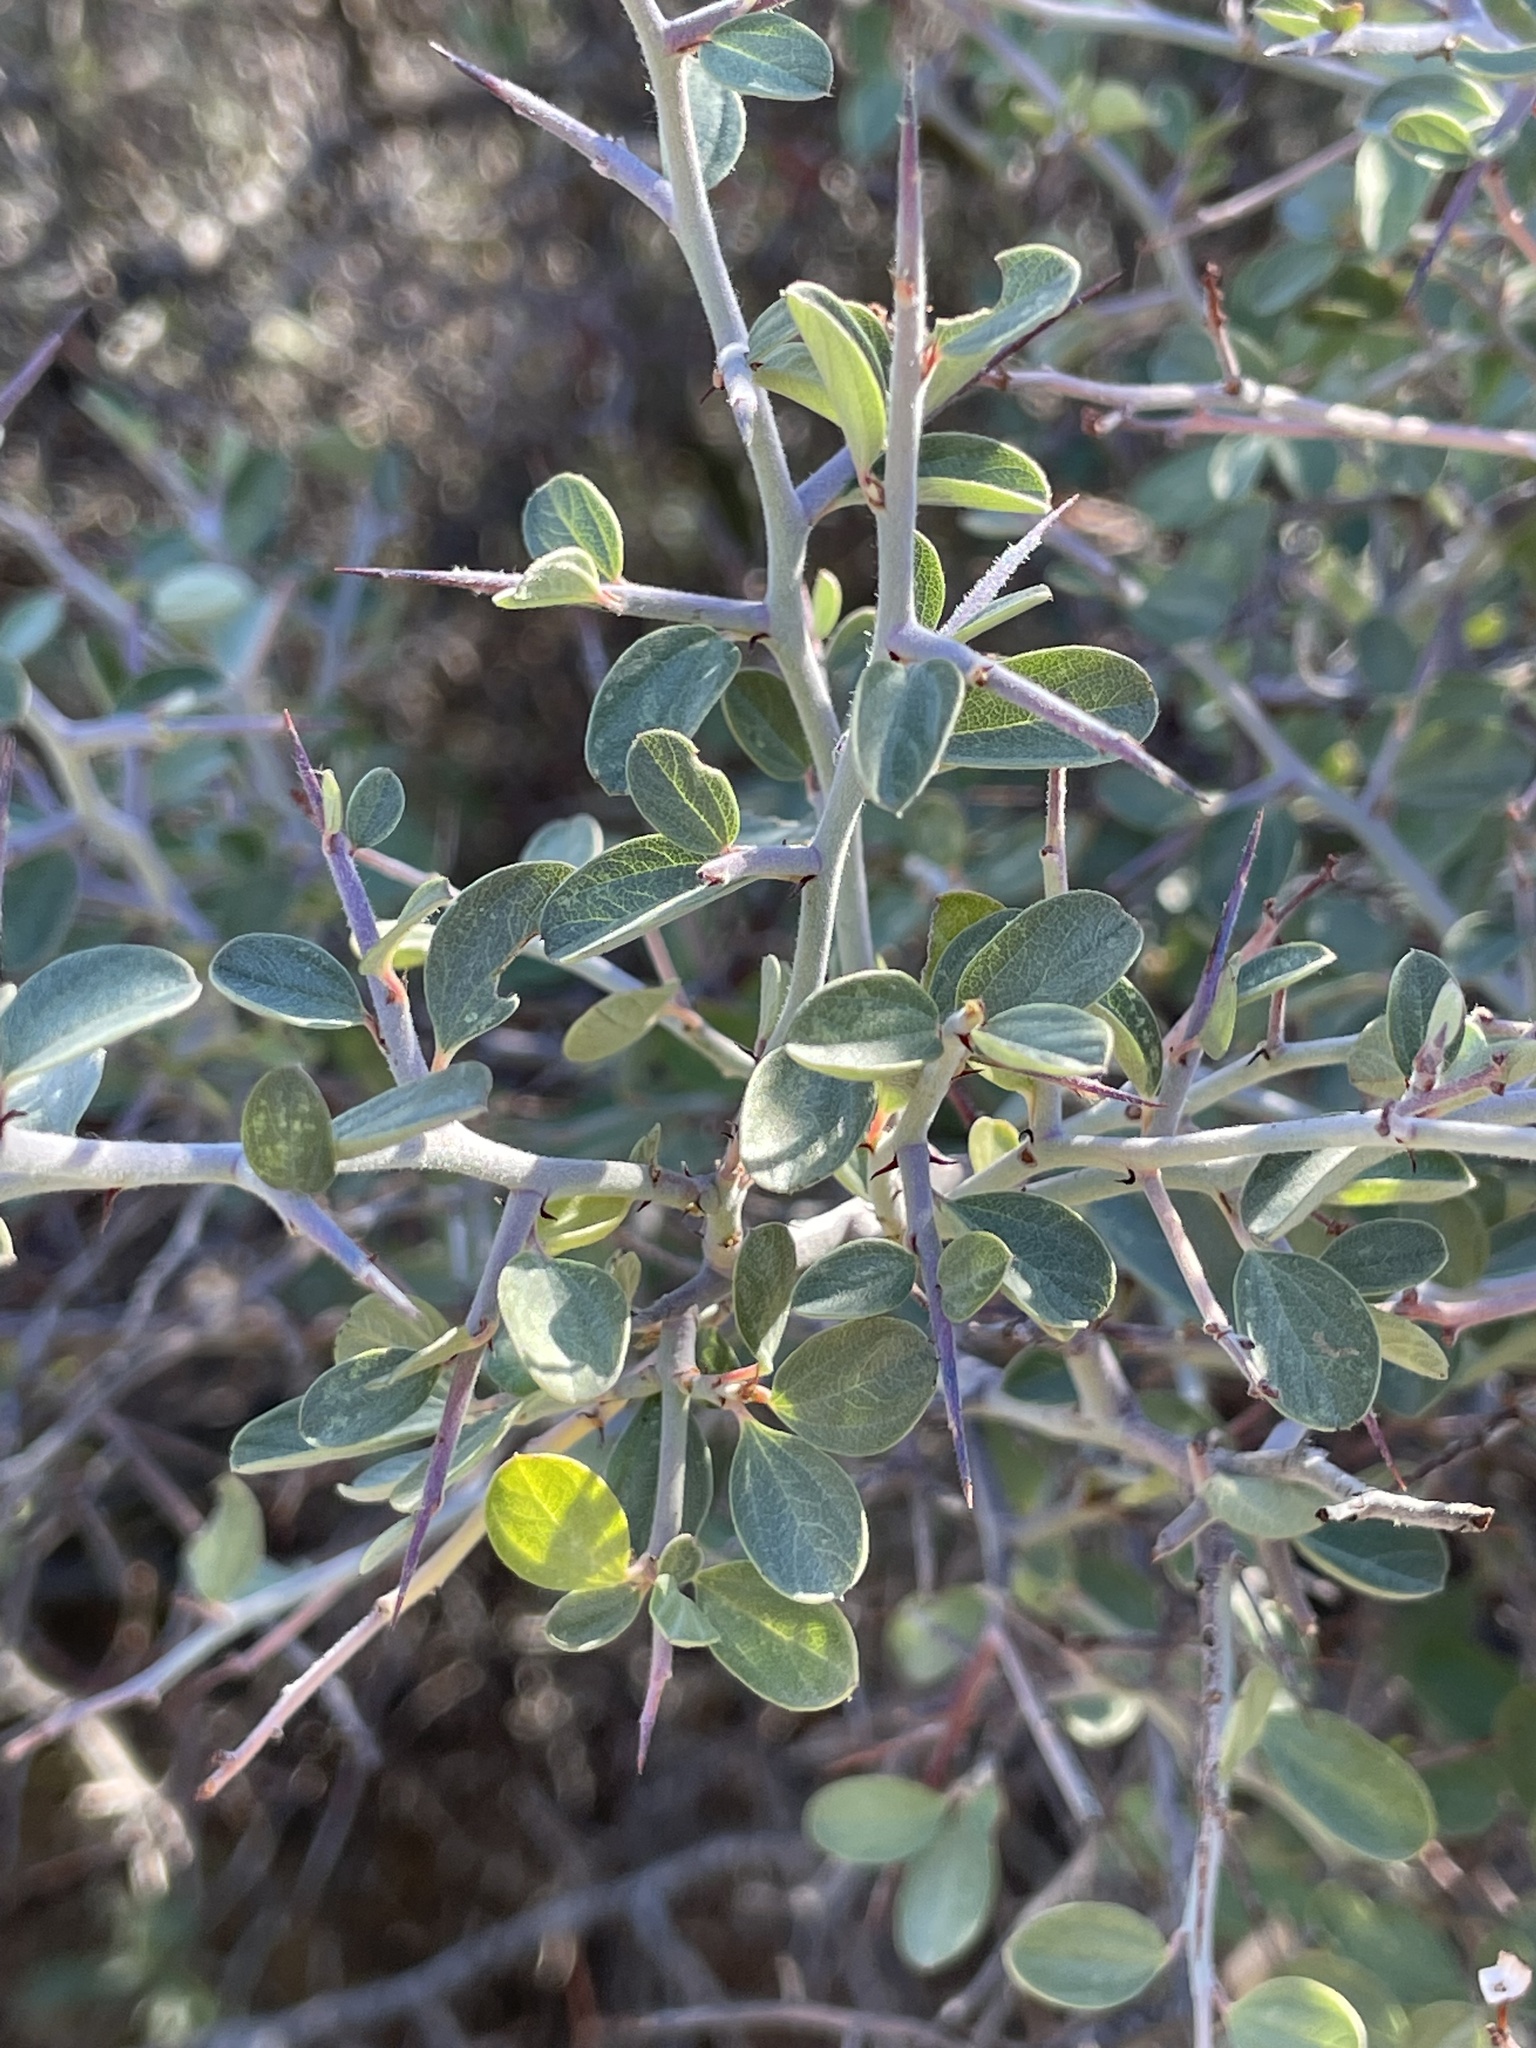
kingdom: Plantae
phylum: Tracheophyta
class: Magnoliopsida
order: Rosales
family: Rhamnaceae
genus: Ceanothus
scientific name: Ceanothus fendleri
